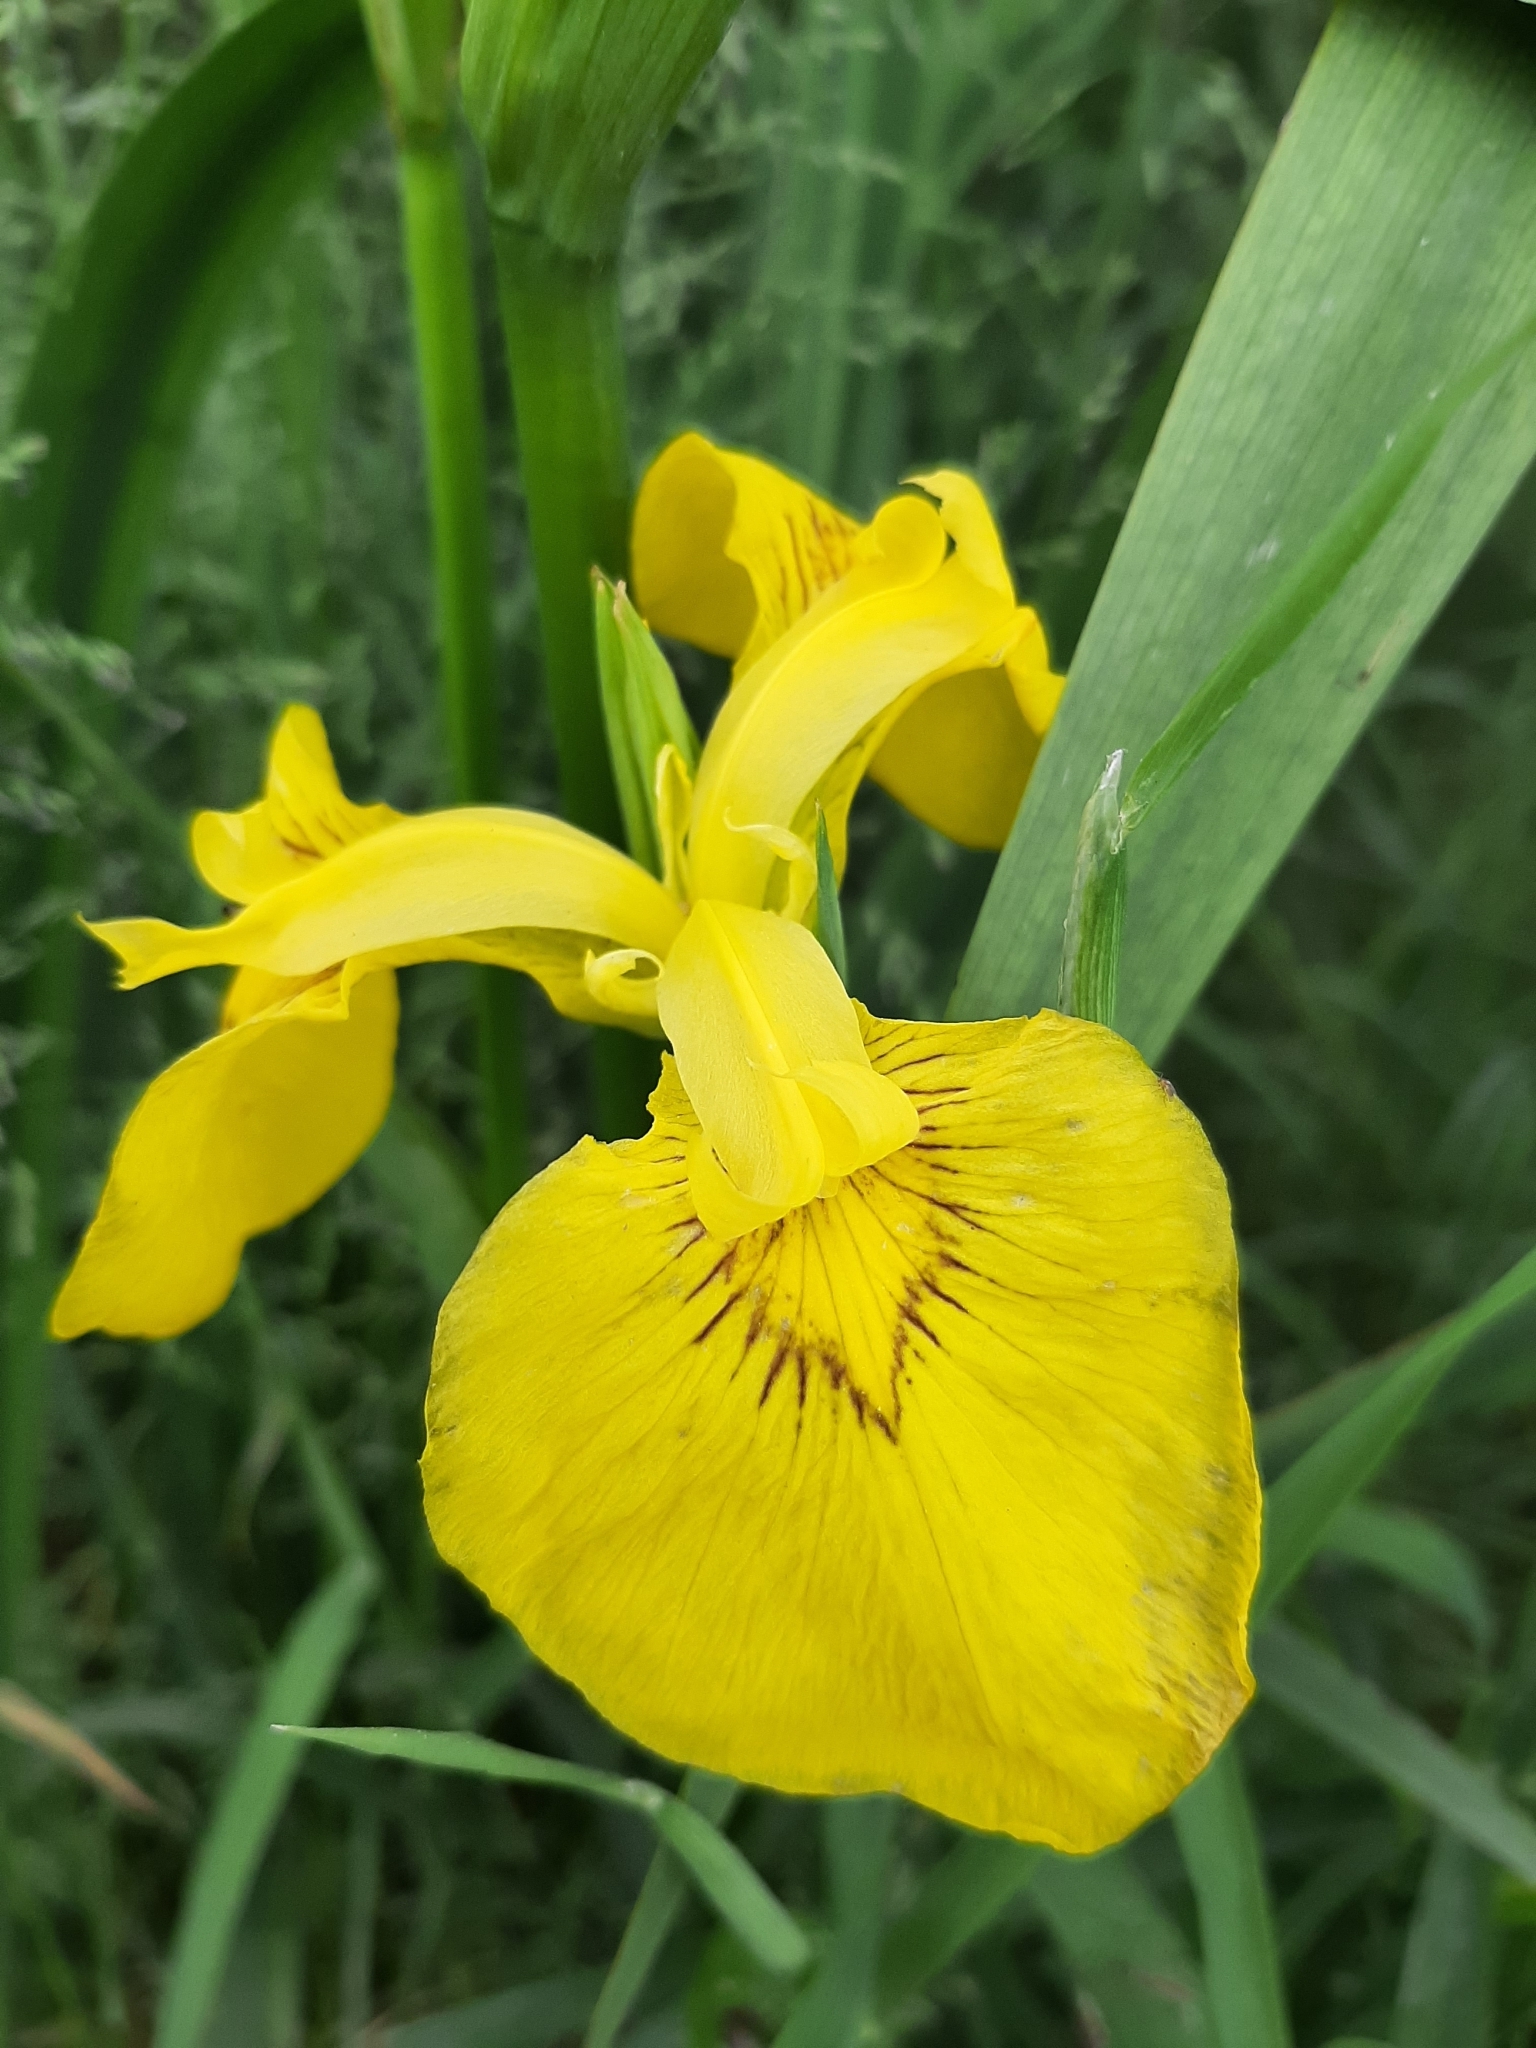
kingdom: Plantae
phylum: Tracheophyta
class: Liliopsida
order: Asparagales
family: Iridaceae
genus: Iris
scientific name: Iris pseudacorus
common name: Yellow flag
